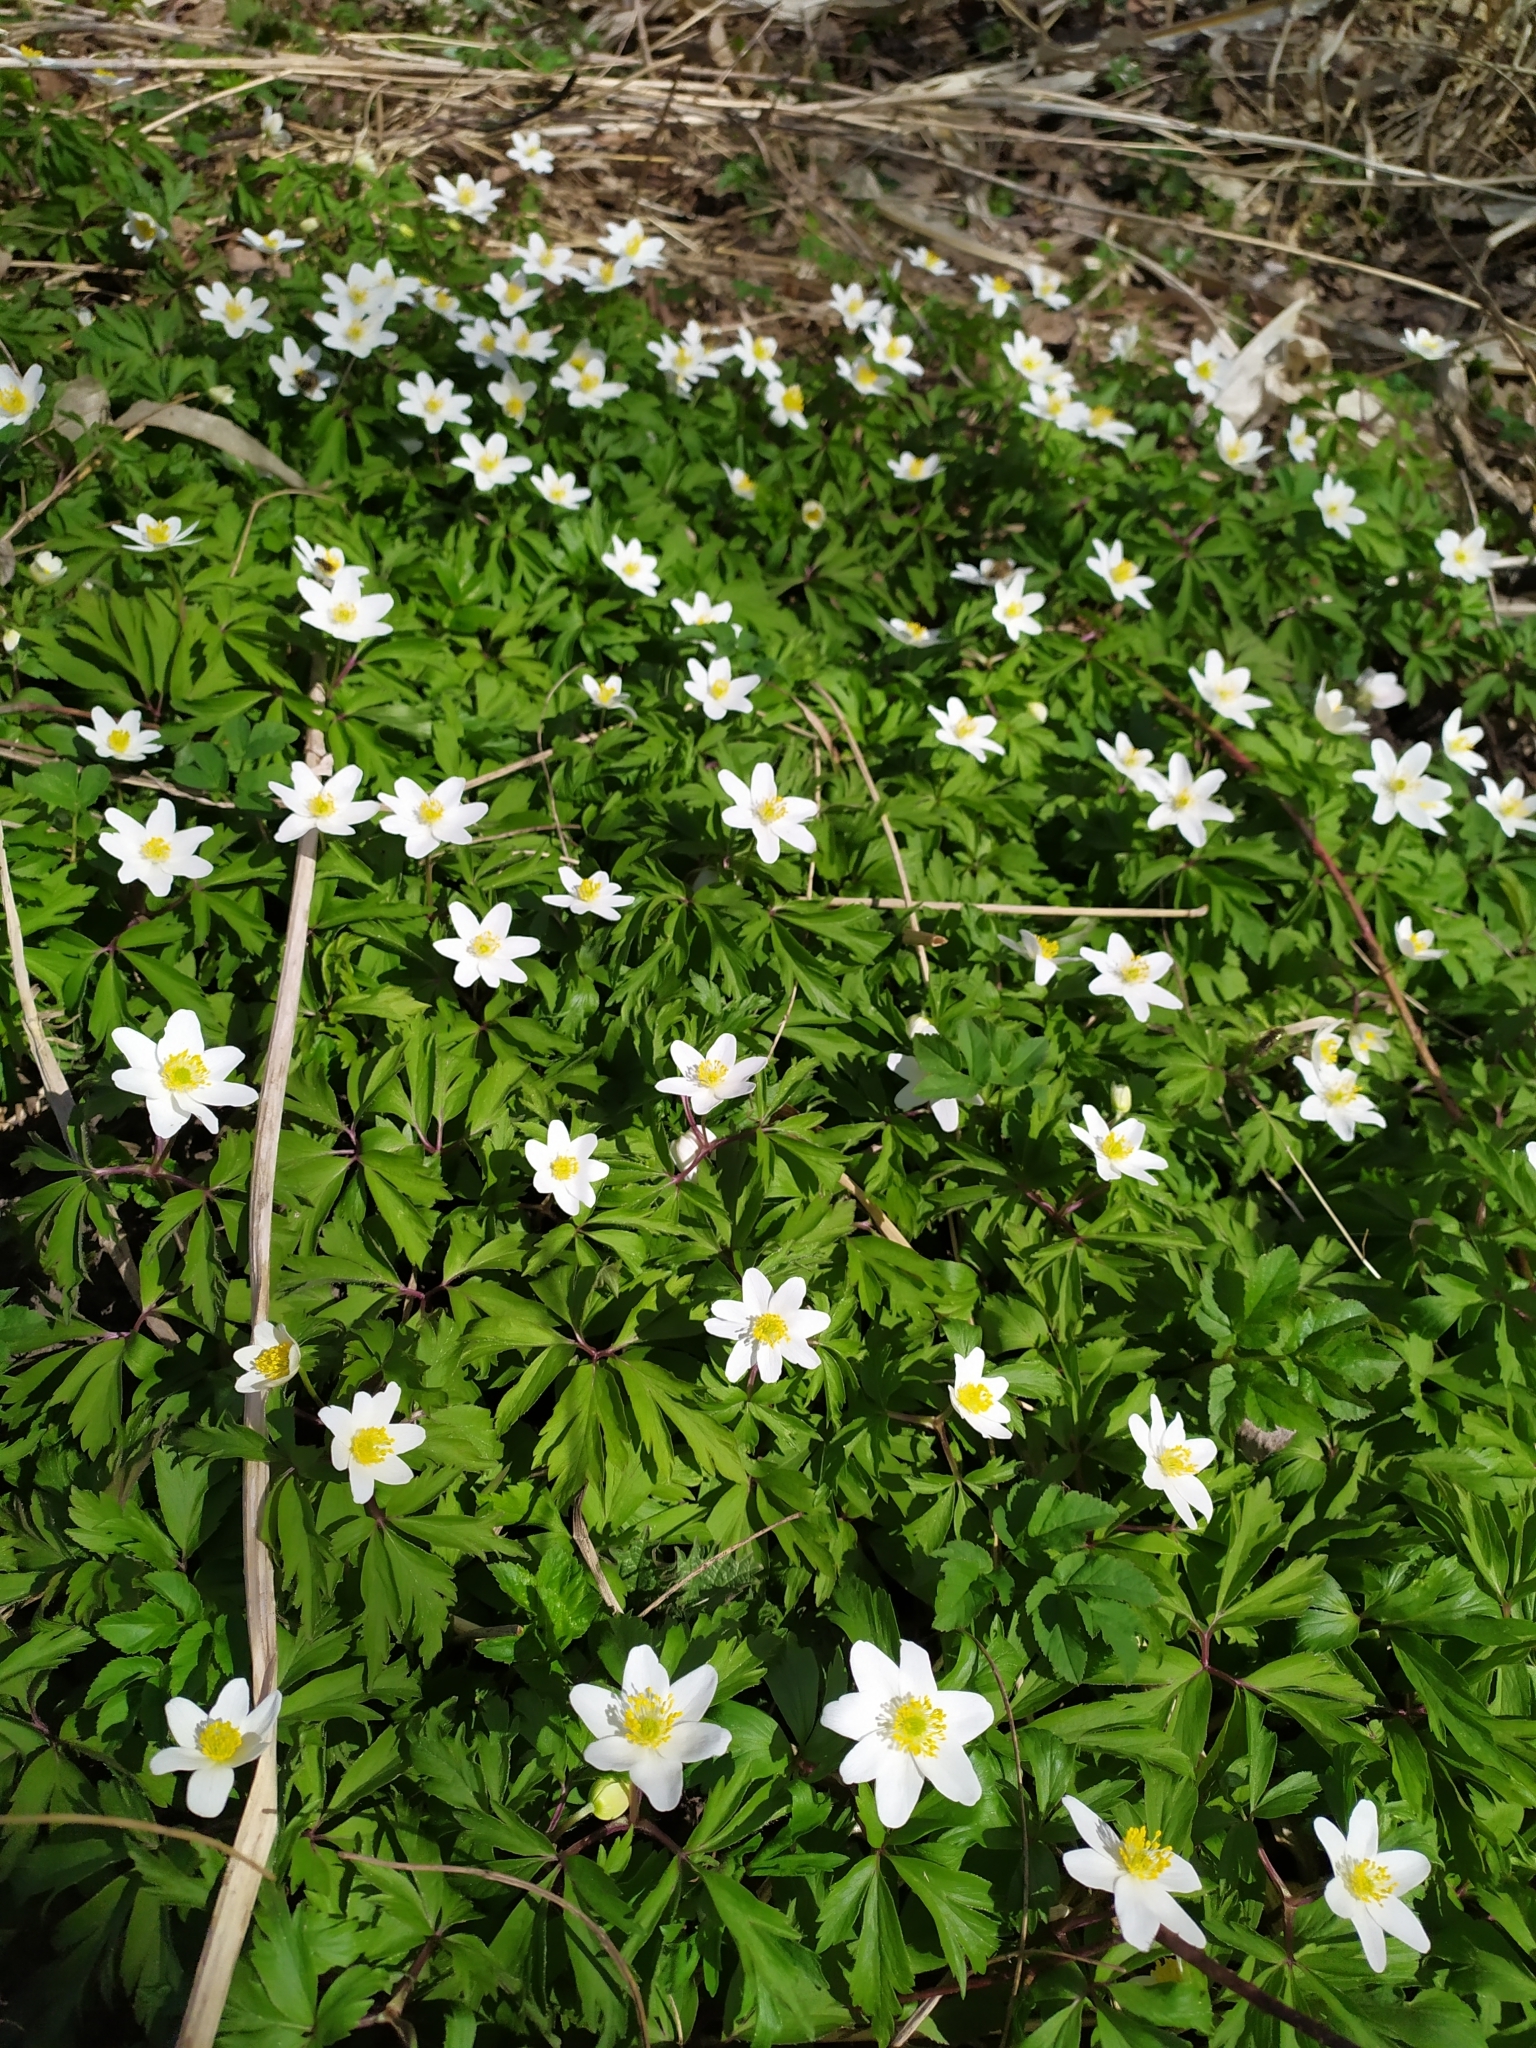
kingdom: Plantae
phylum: Tracheophyta
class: Magnoliopsida
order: Ranunculales
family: Ranunculaceae
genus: Anemone
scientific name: Anemone nemorosa
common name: Wood anemone
